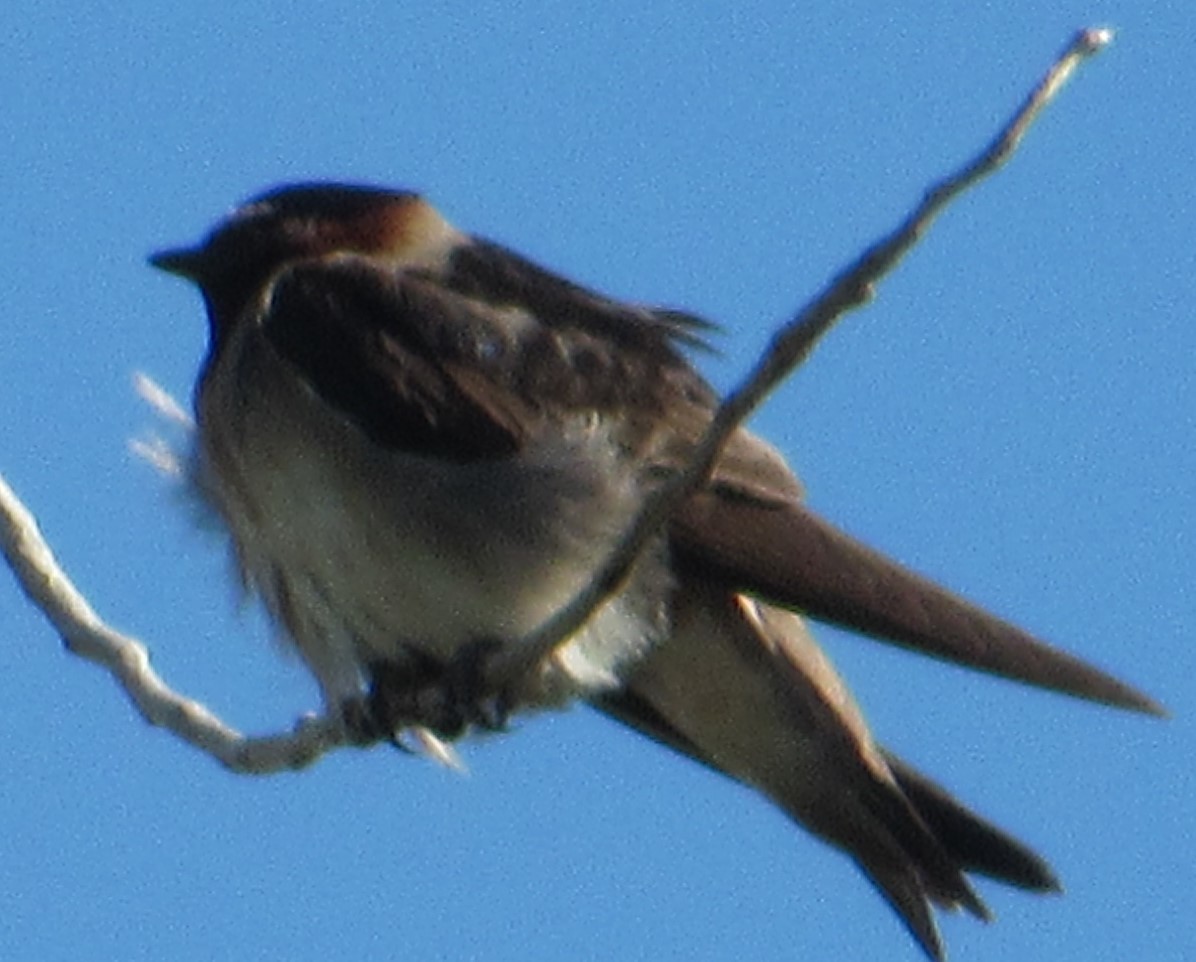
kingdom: Animalia
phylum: Chordata
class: Aves
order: Passeriformes
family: Hirundinidae
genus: Petrochelidon
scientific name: Petrochelidon pyrrhonota
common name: American cliff swallow
